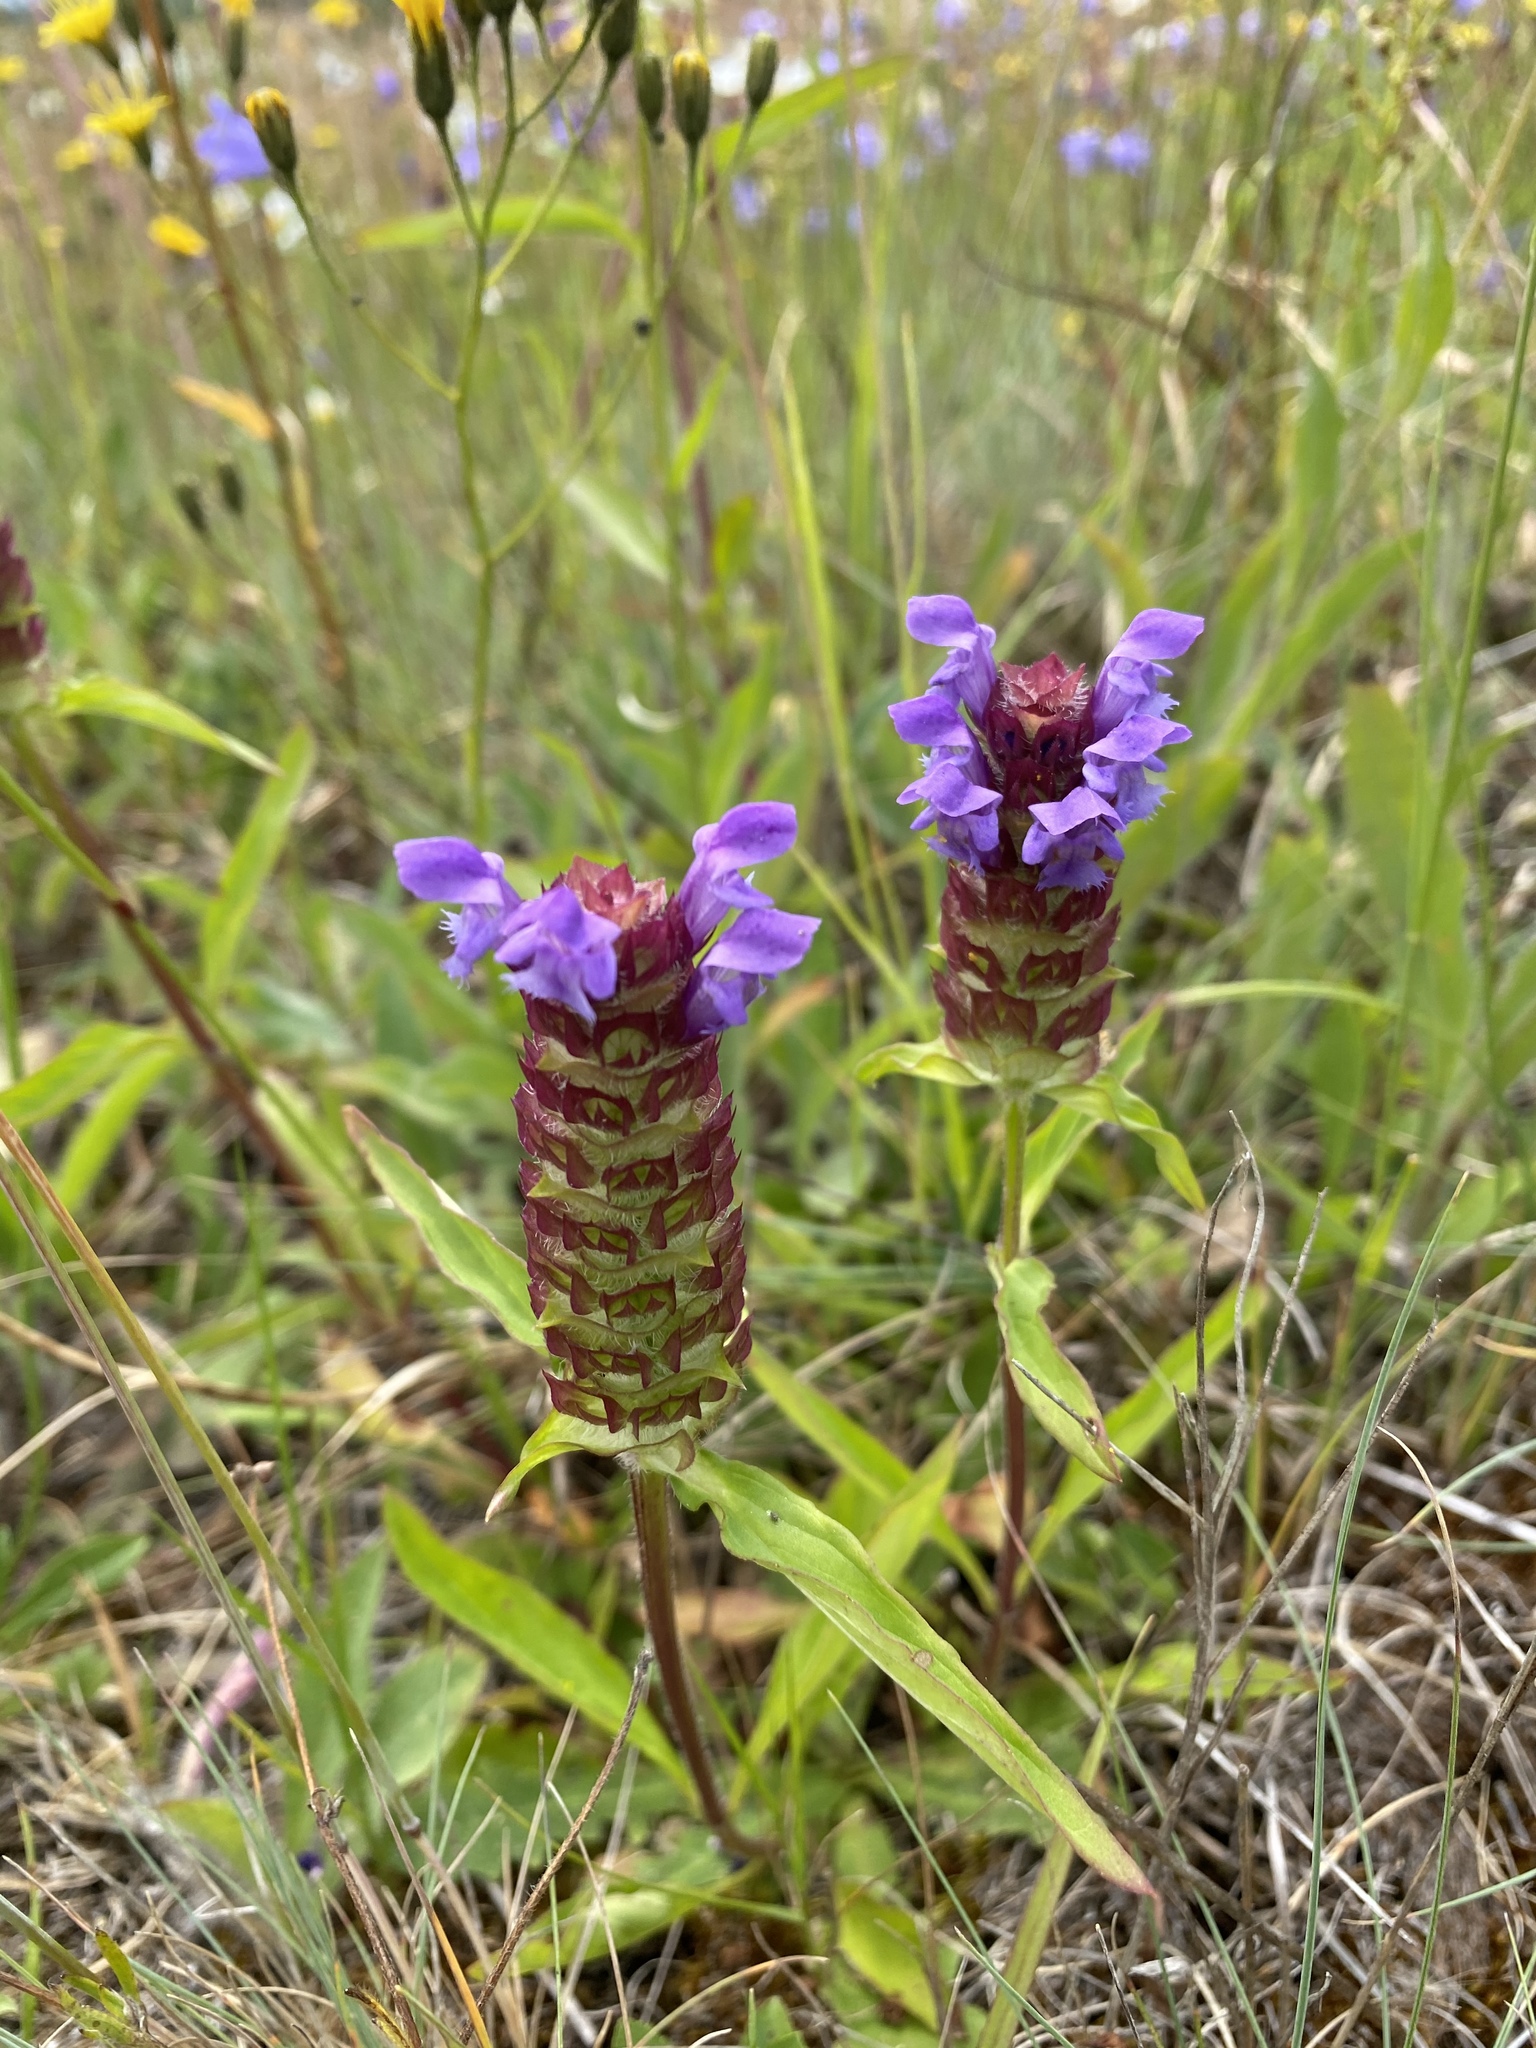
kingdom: Plantae
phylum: Tracheophyta
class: Magnoliopsida
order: Lamiales
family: Lamiaceae
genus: Prunella
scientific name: Prunella vulgaris
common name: Heal-all
